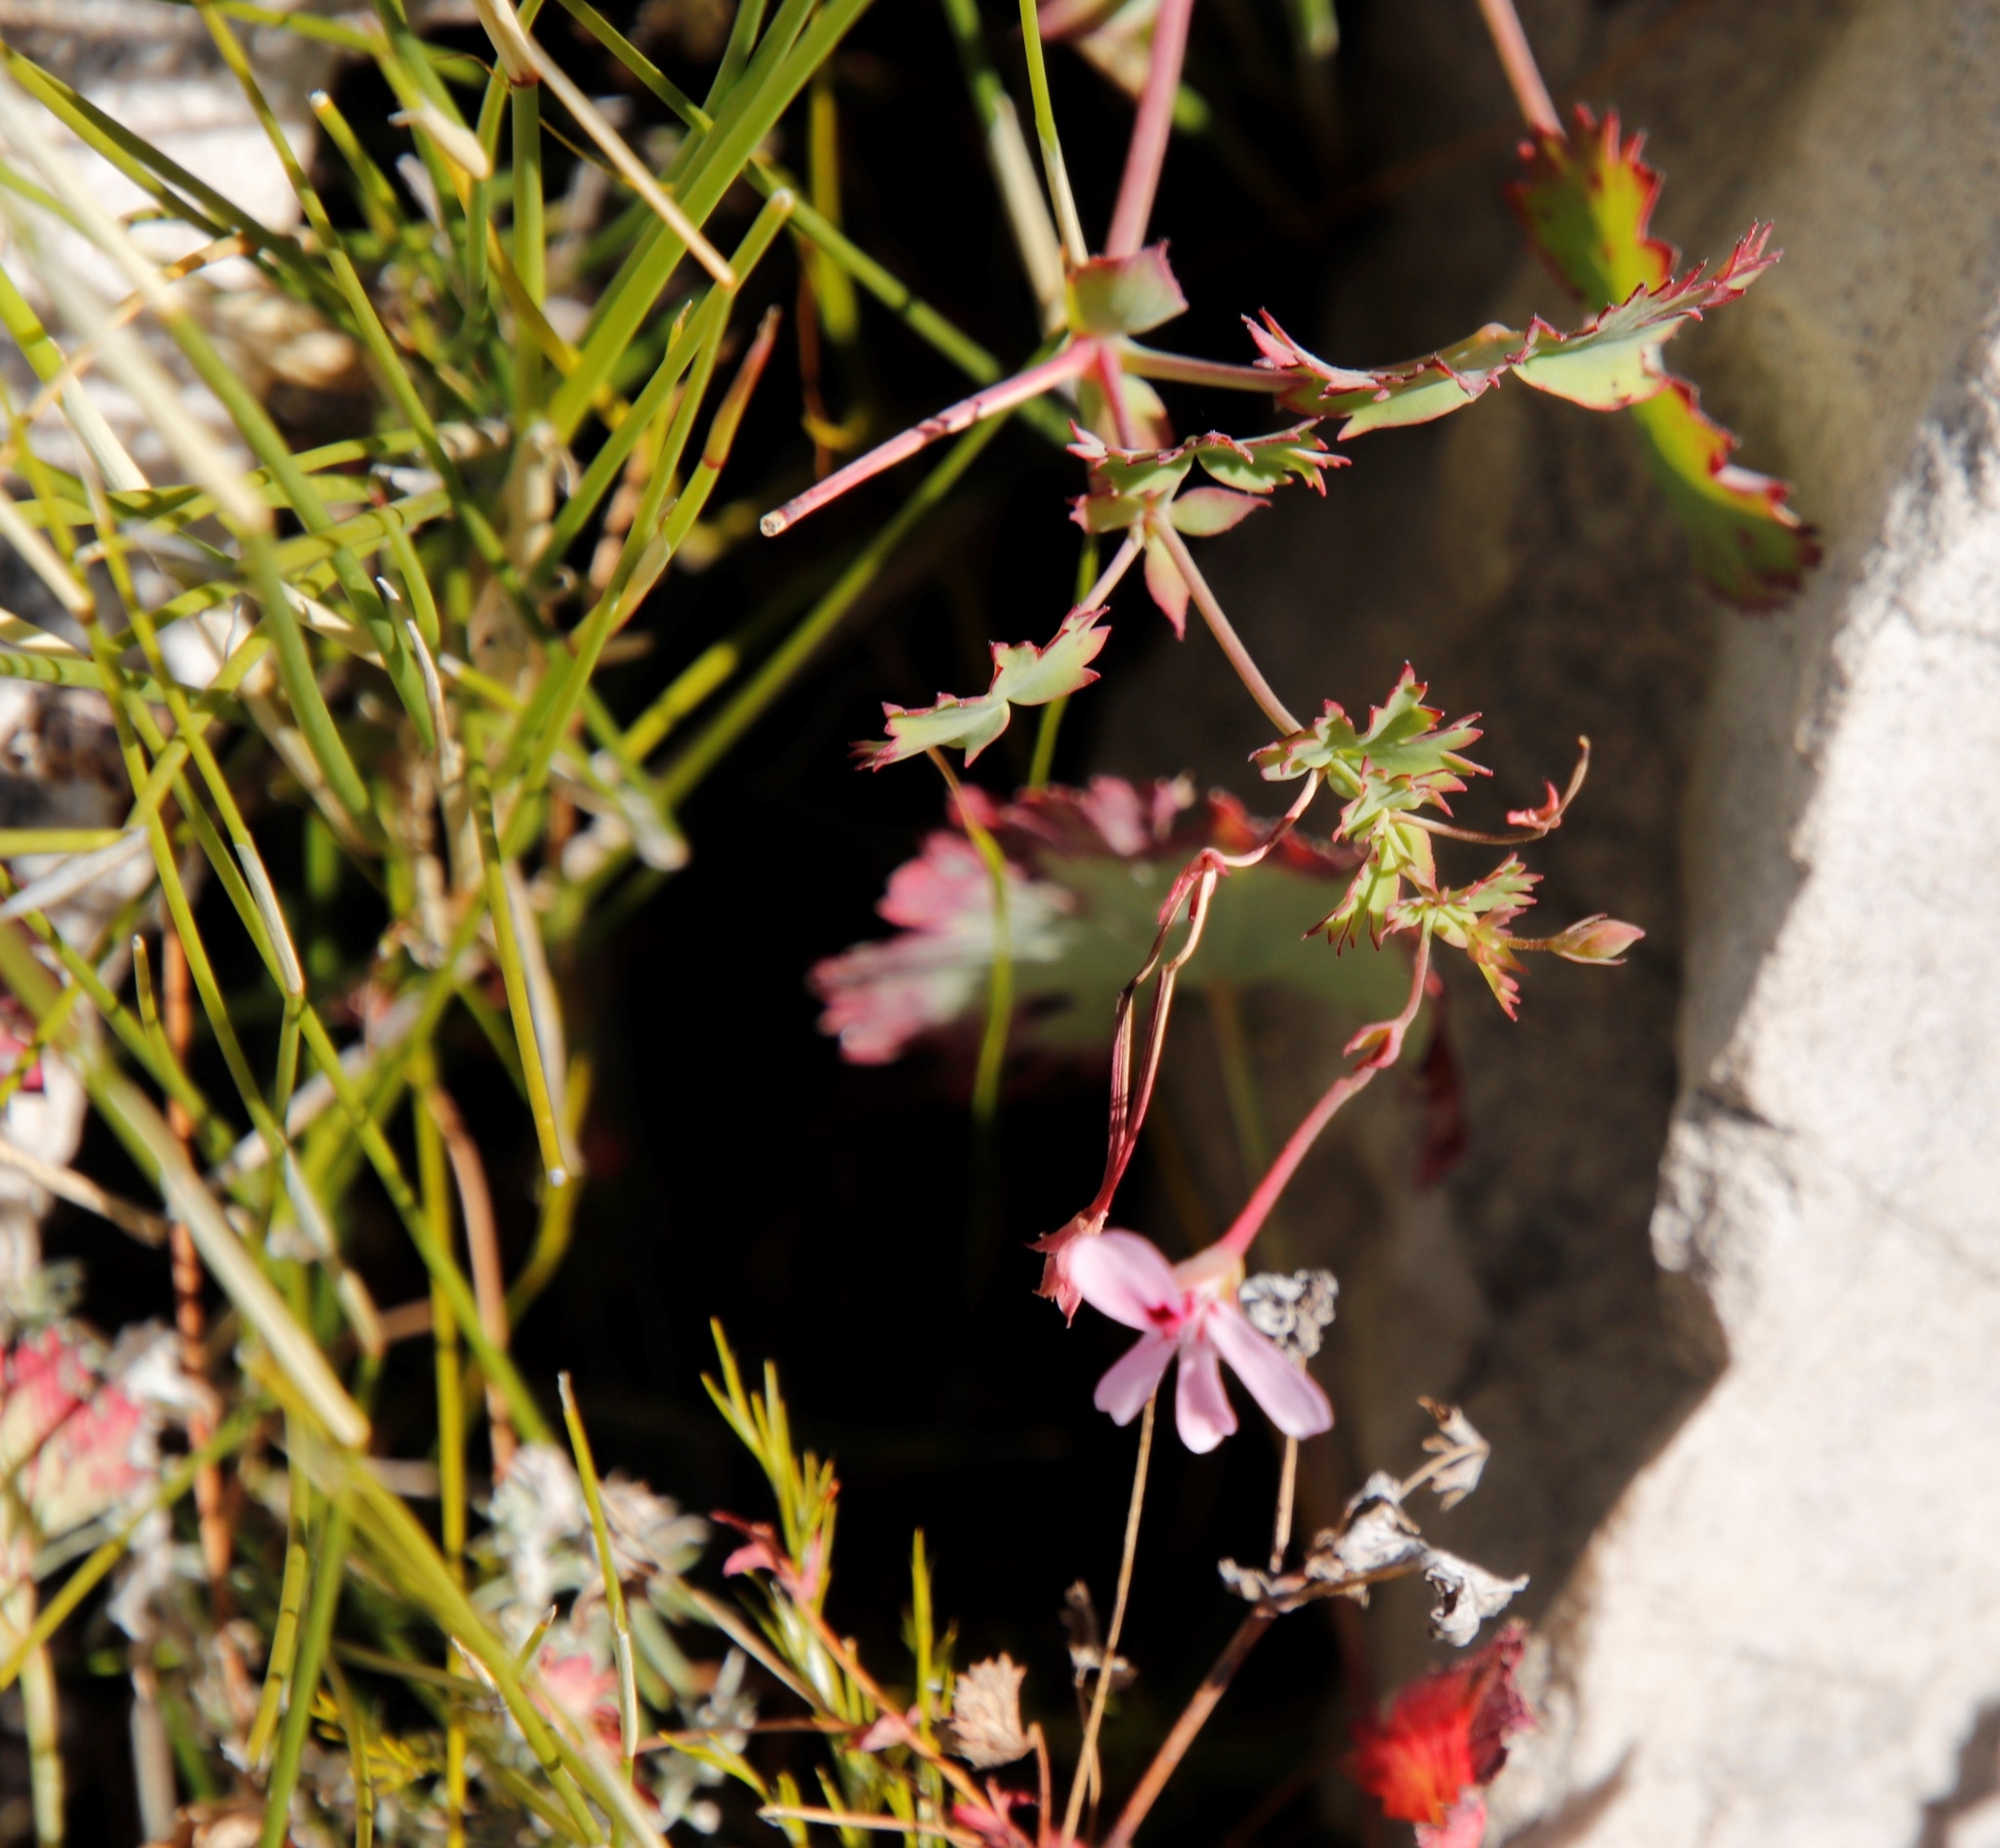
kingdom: Plantae
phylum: Tracheophyta
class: Magnoliopsida
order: Geraniales
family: Geraniaceae
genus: Pelargonium
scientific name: Pelargonium patulum
